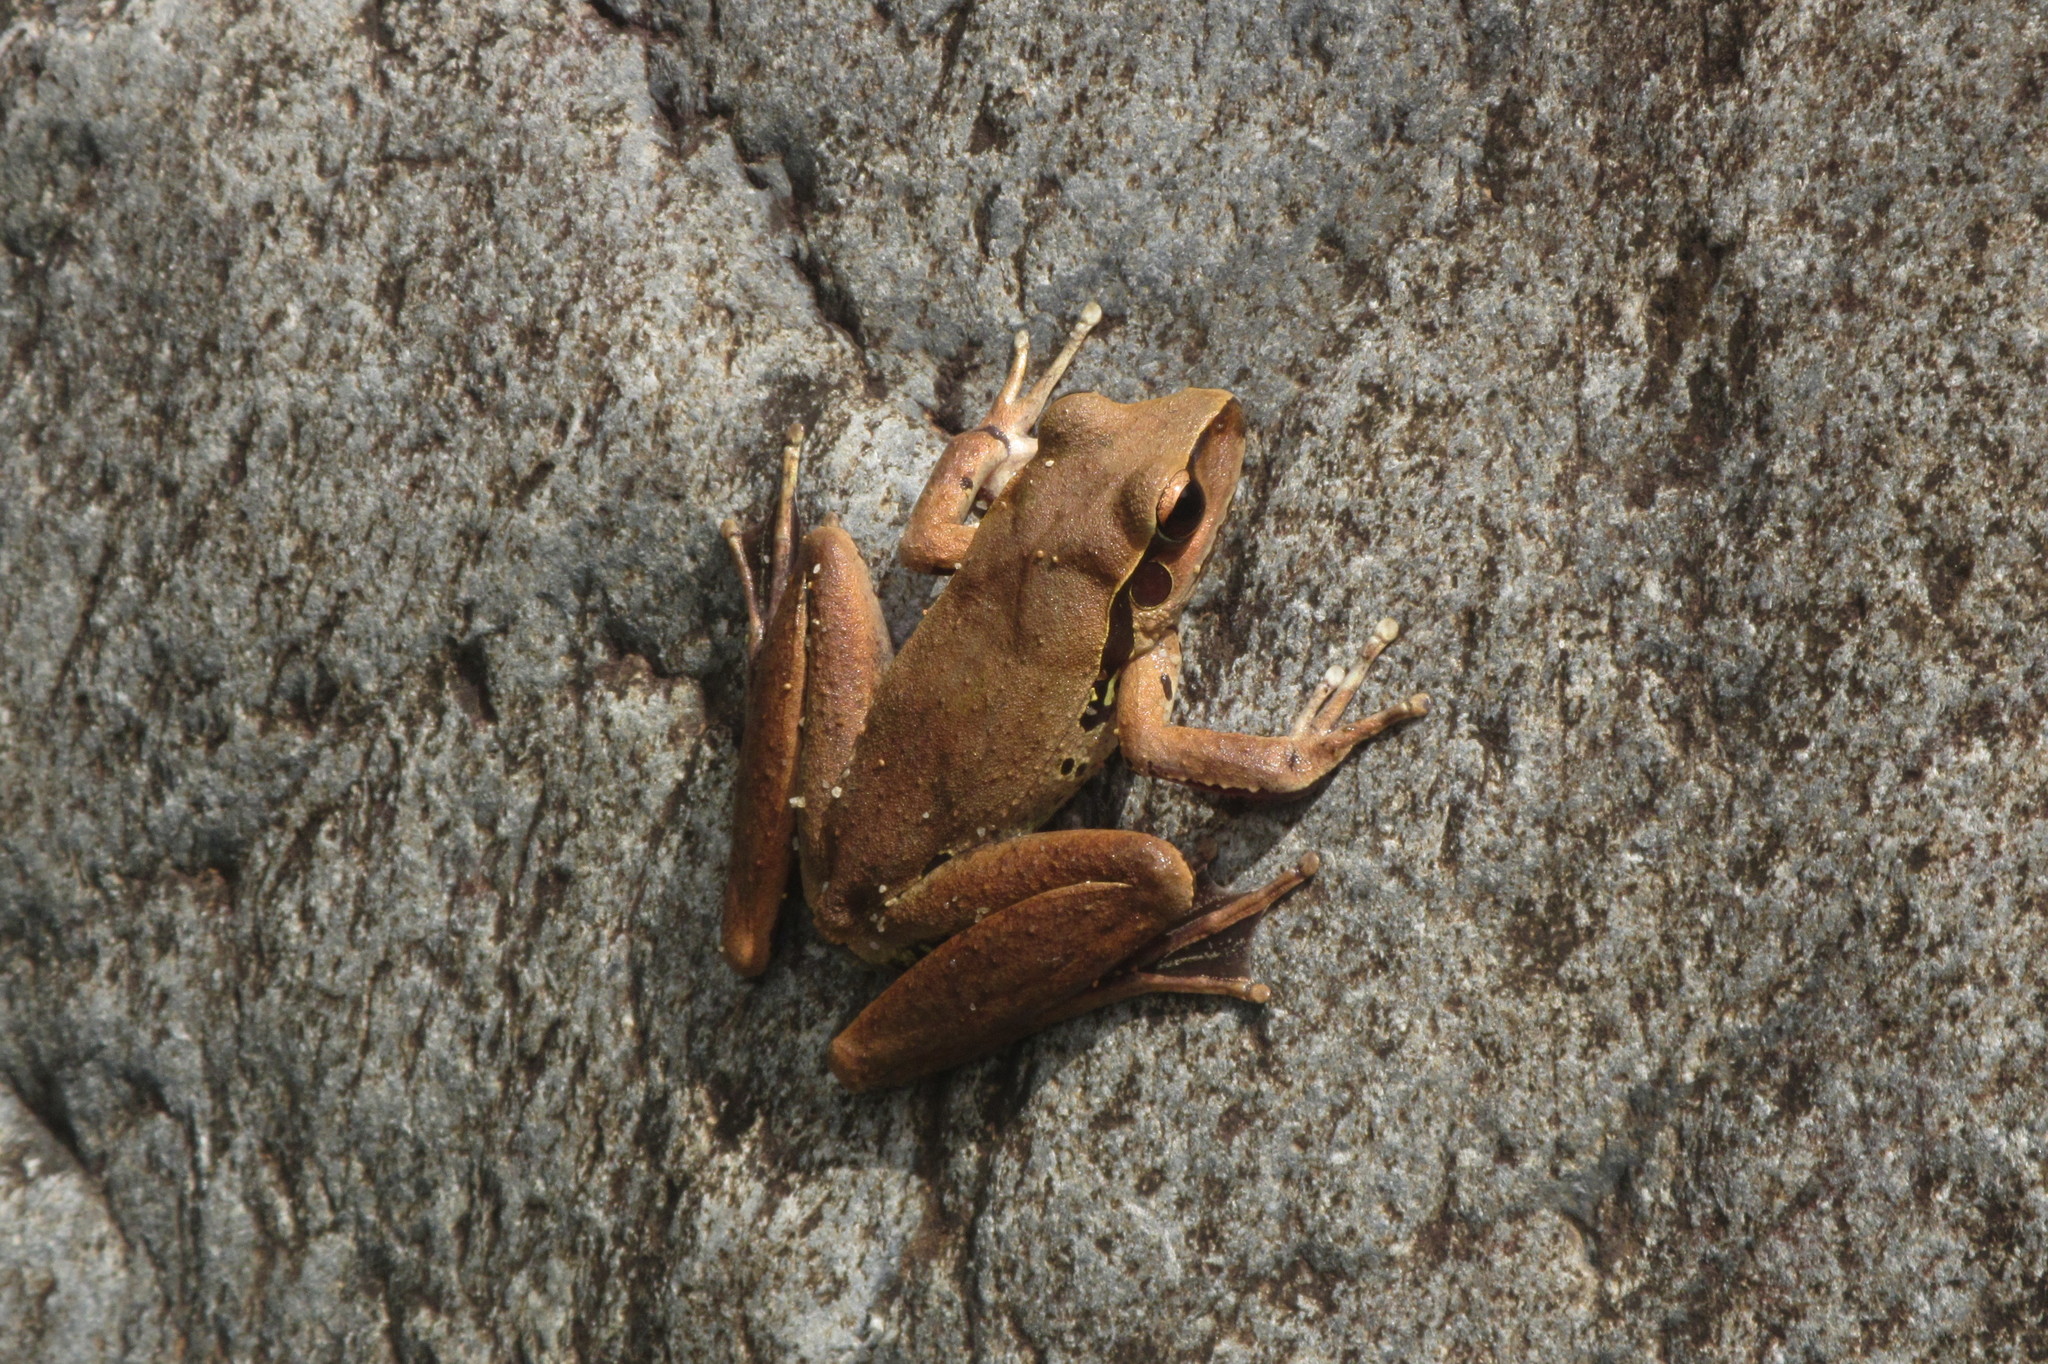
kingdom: Animalia
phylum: Chordata
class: Amphibia
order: Anura
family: Pelodryadidae
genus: Ranoidea
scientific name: Ranoidea jungguy
